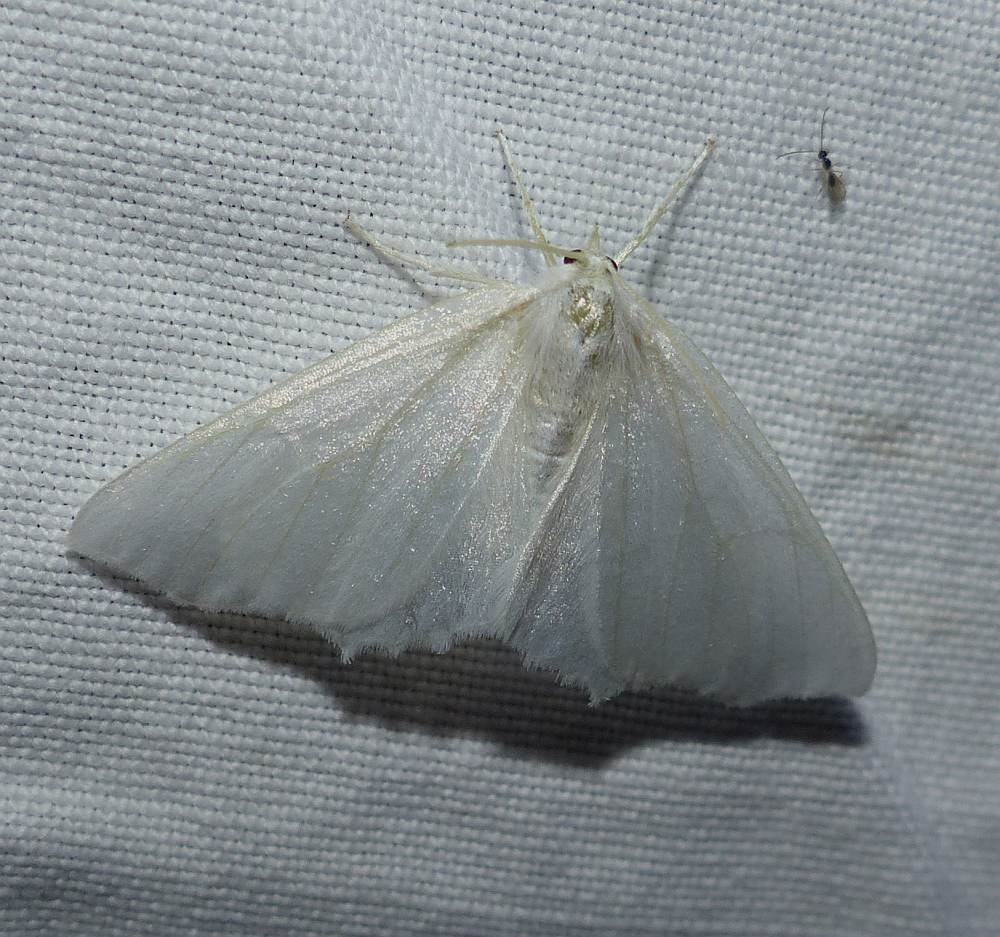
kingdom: Animalia
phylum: Arthropoda
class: Insecta
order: Lepidoptera
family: Geometridae
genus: Ennomos
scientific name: Ennomos subsignaria
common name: Elm spanworm
